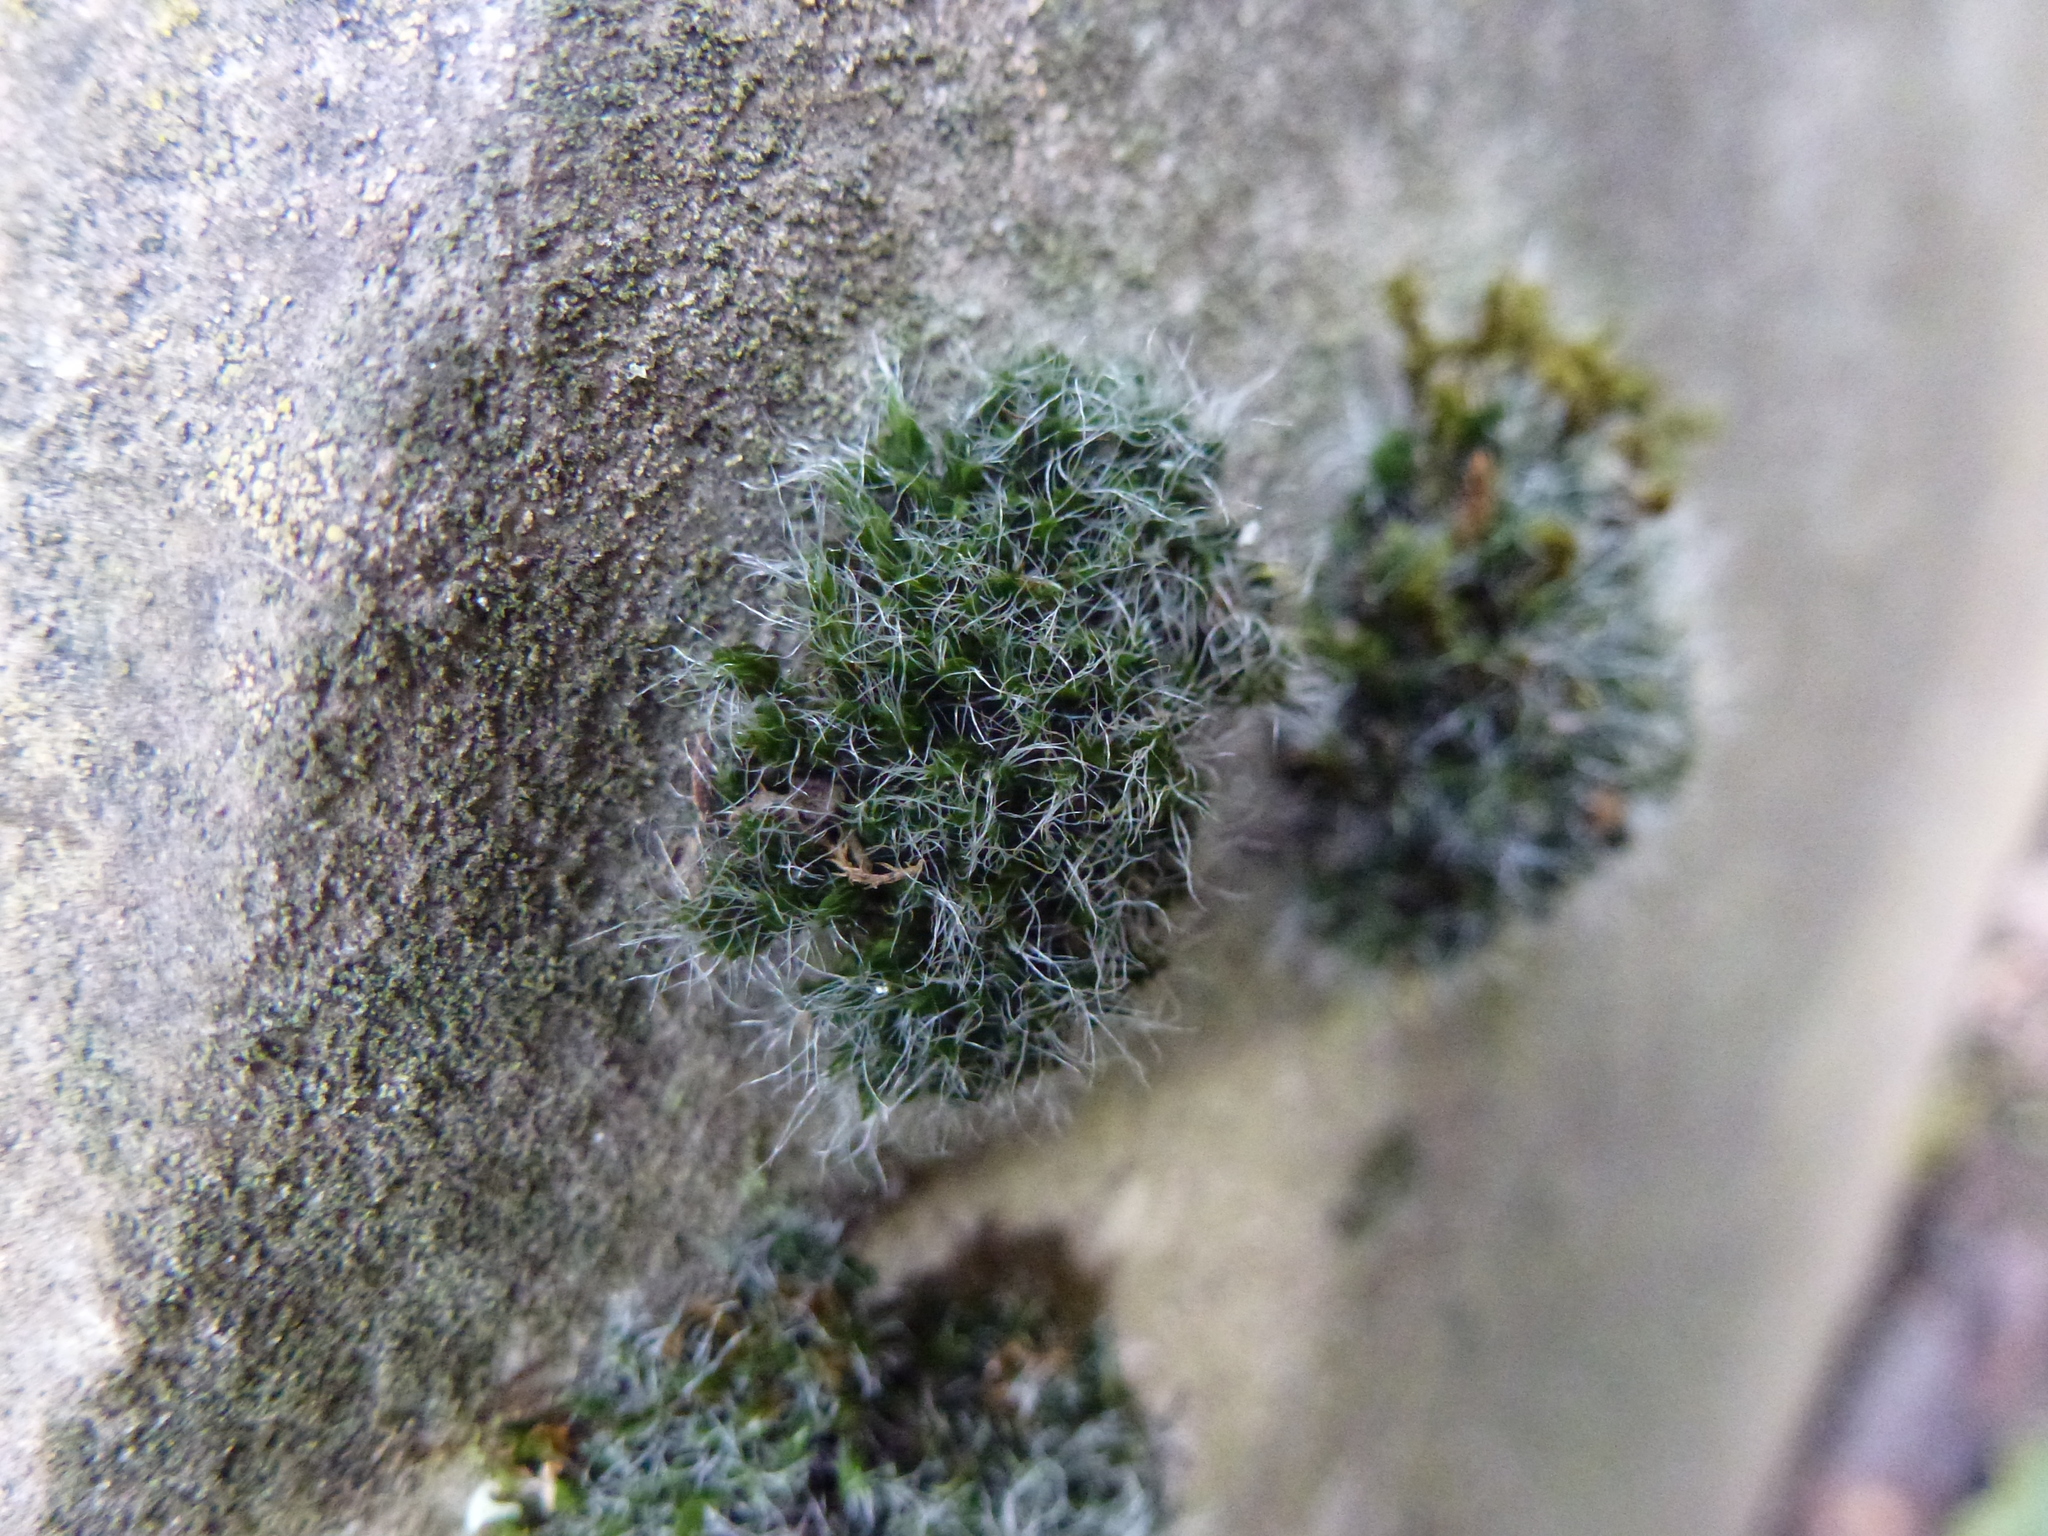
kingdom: Plantae
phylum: Bryophyta
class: Bryopsida
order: Grimmiales
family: Grimmiaceae
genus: Grimmia
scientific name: Grimmia pulvinata
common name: Grey-cushioned grimmia
